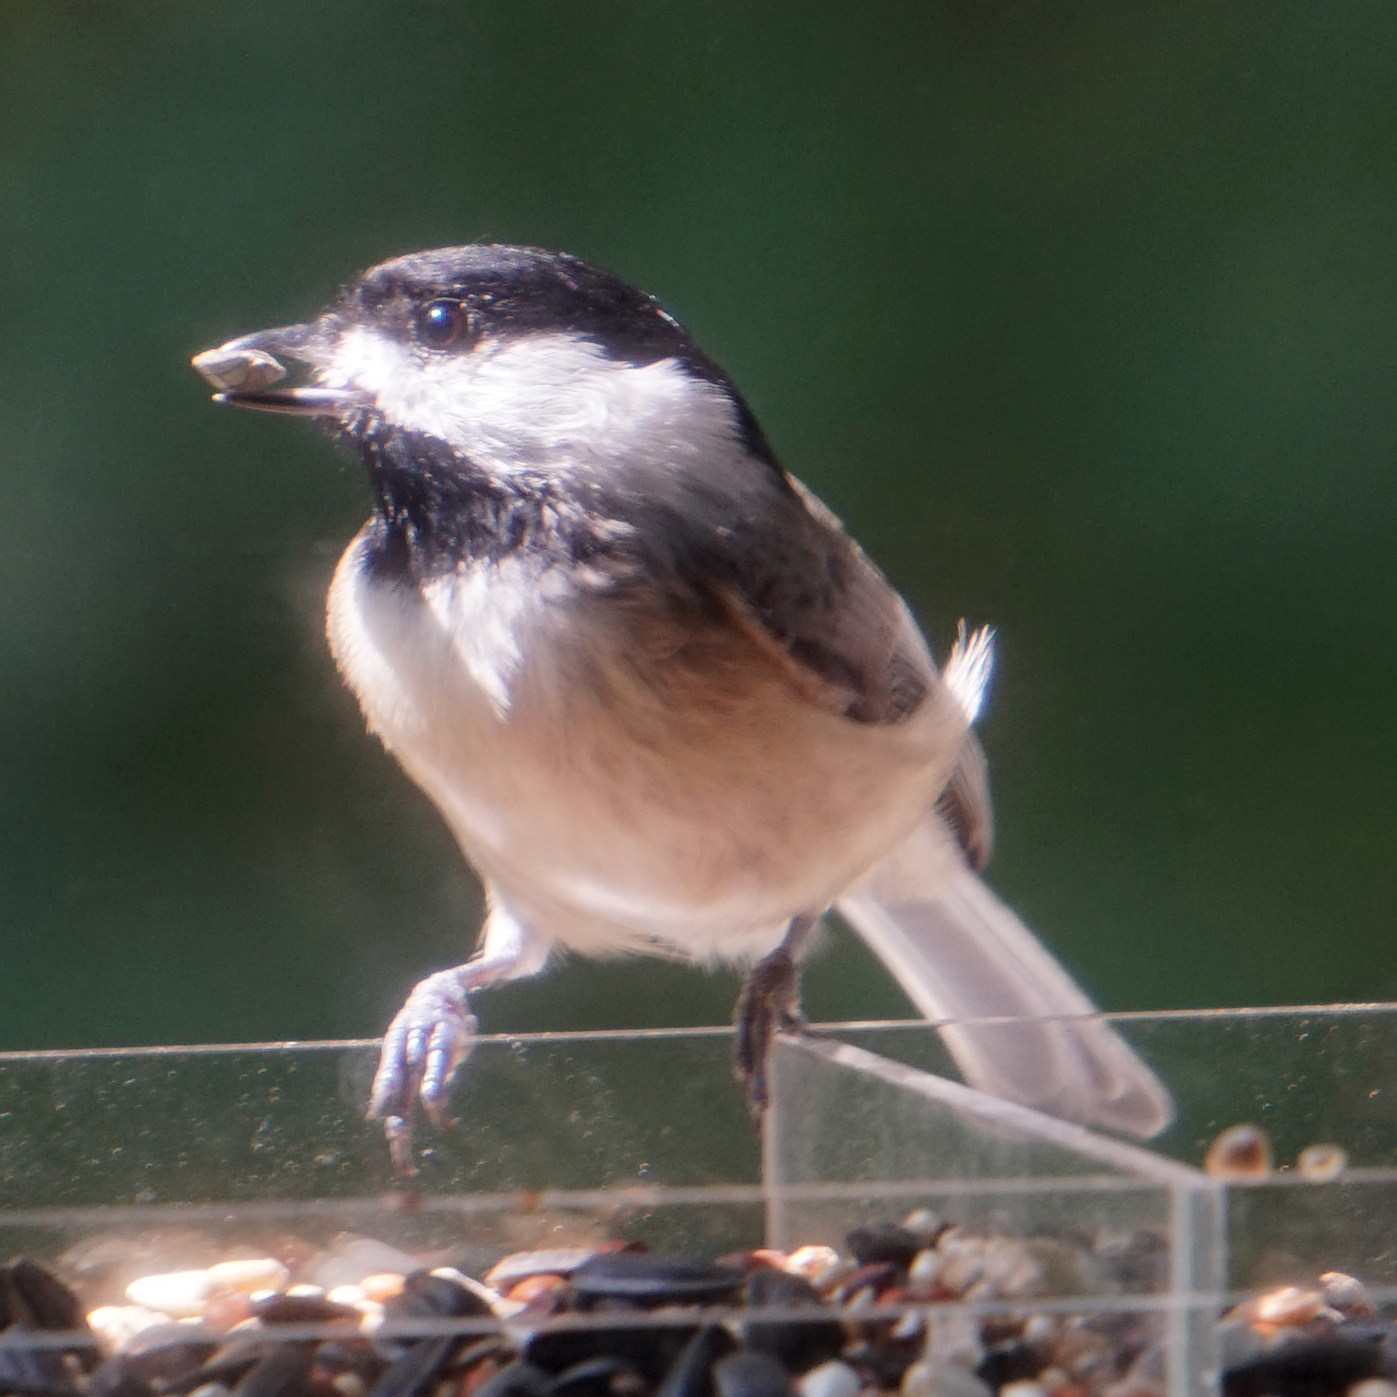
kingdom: Animalia
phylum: Chordata
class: Aves
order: Passeriformes
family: Paridae
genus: Poecile
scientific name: Poecile carolinensis
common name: Carolina chickadee
